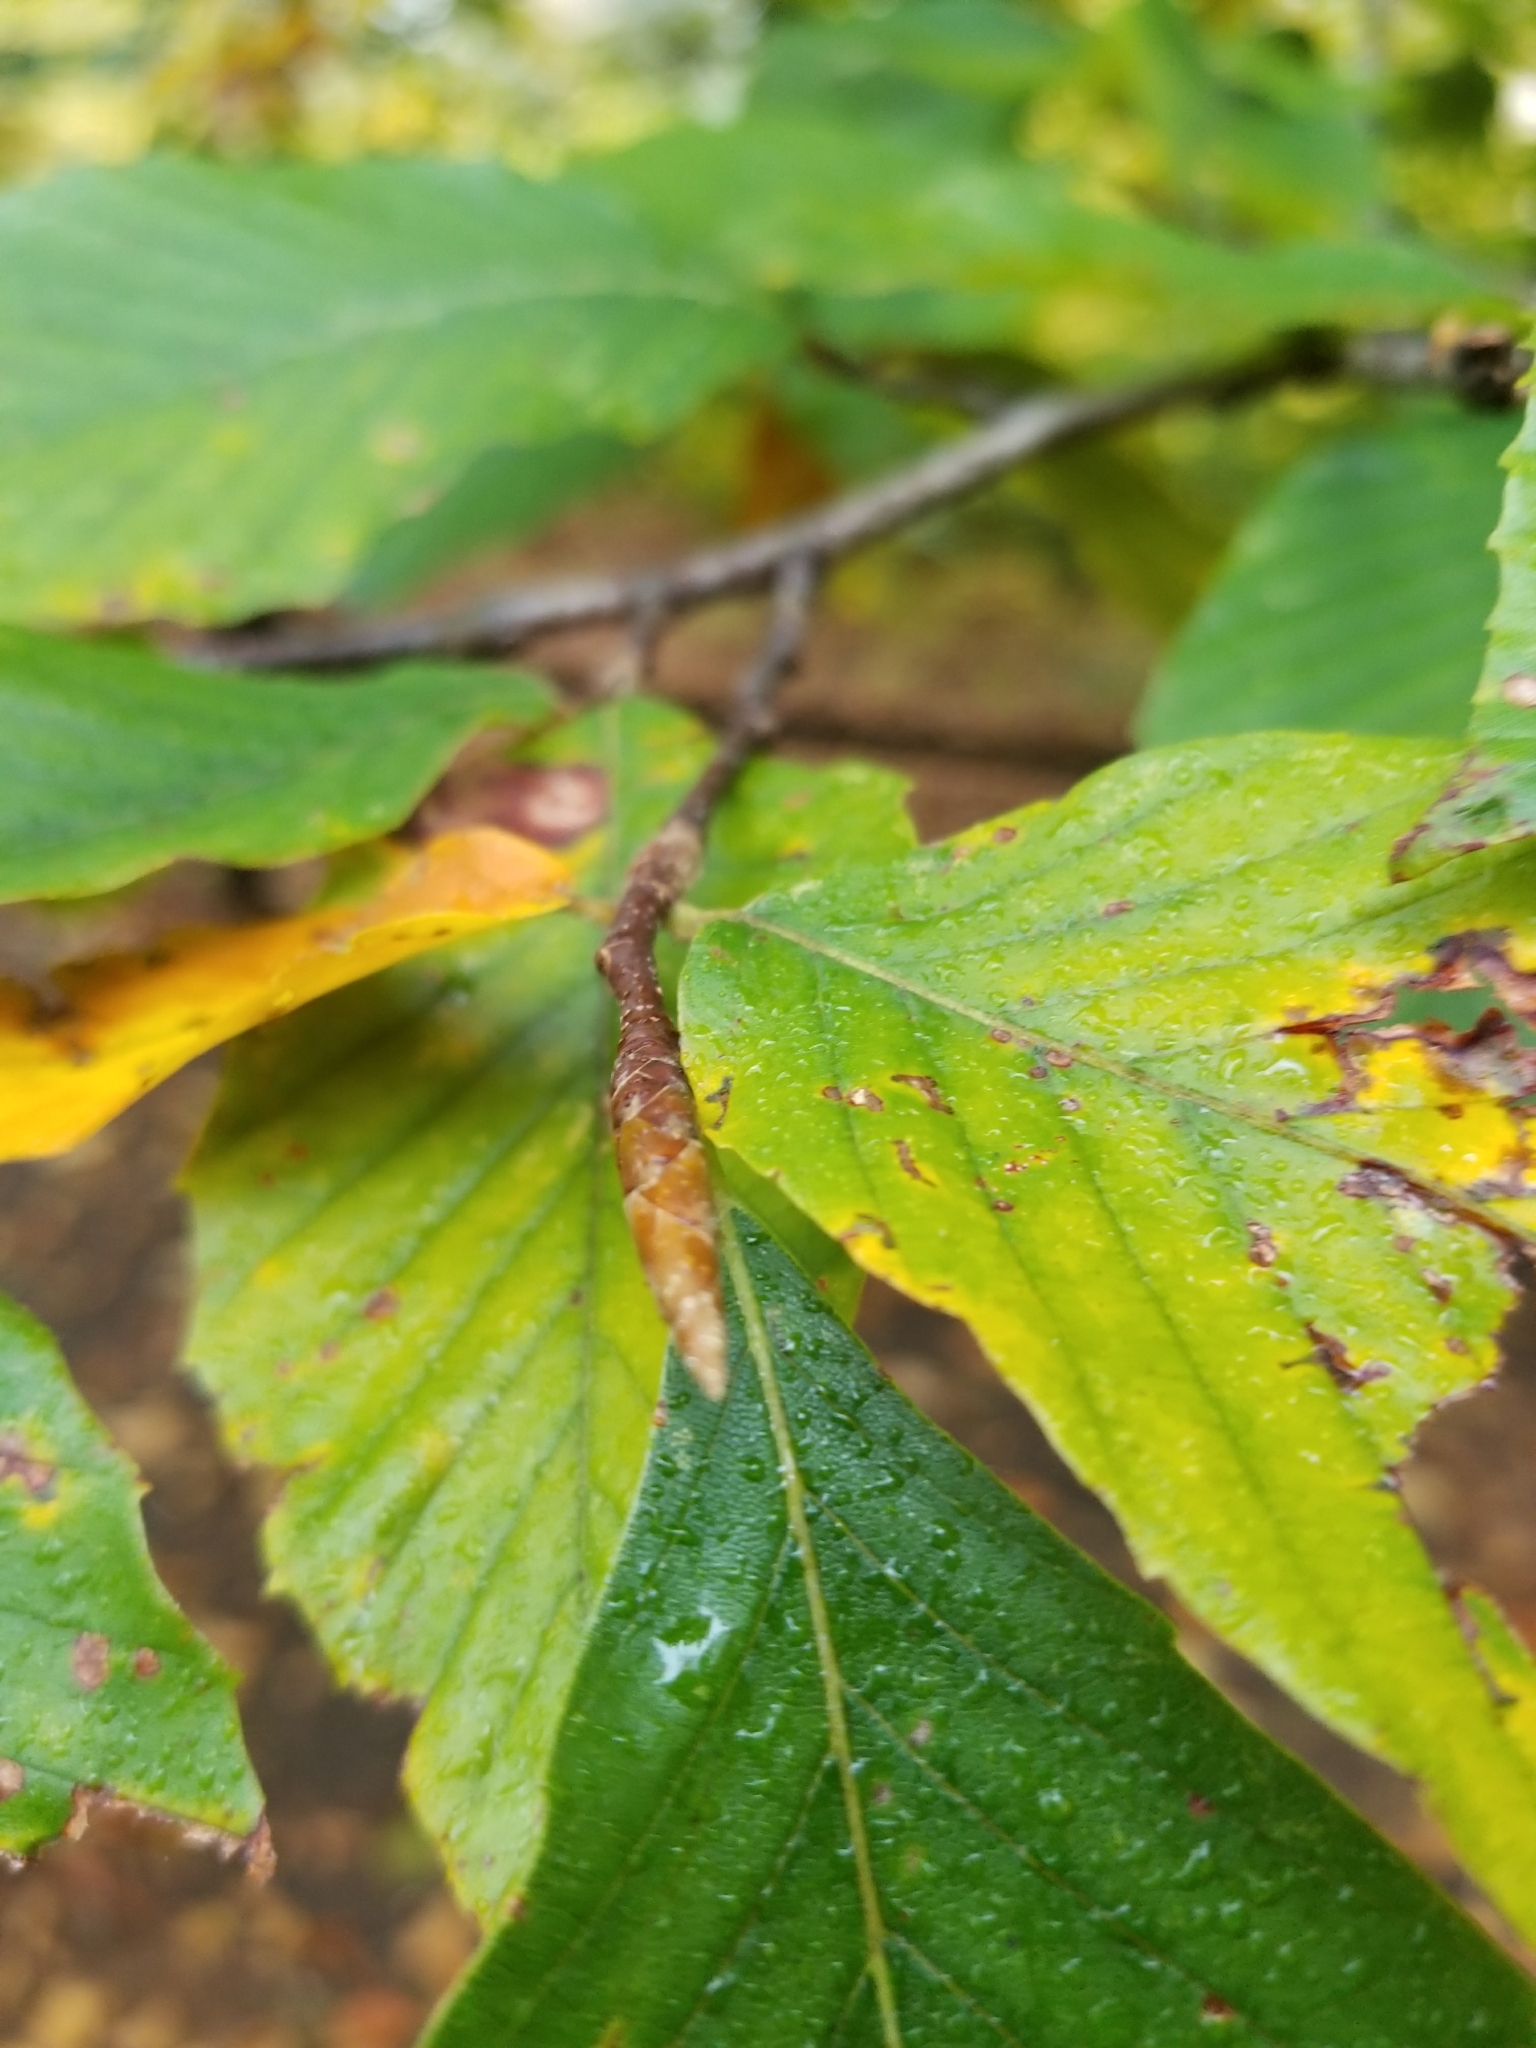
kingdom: Plantae
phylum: Tracheophyta
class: Magnoliopsida
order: Fagales
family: Fagaceae
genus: Fagus
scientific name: Fagus grandifolia
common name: American beech
